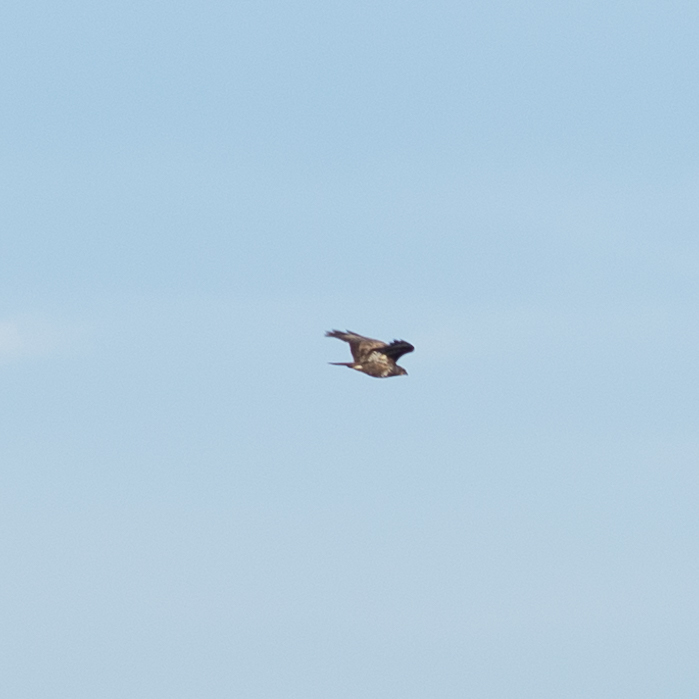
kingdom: Animalia
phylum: Chordata
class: Aves
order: Accipitriformes
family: Accipitridae
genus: Buteo
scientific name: Buteo buteo
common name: Common buzzard
